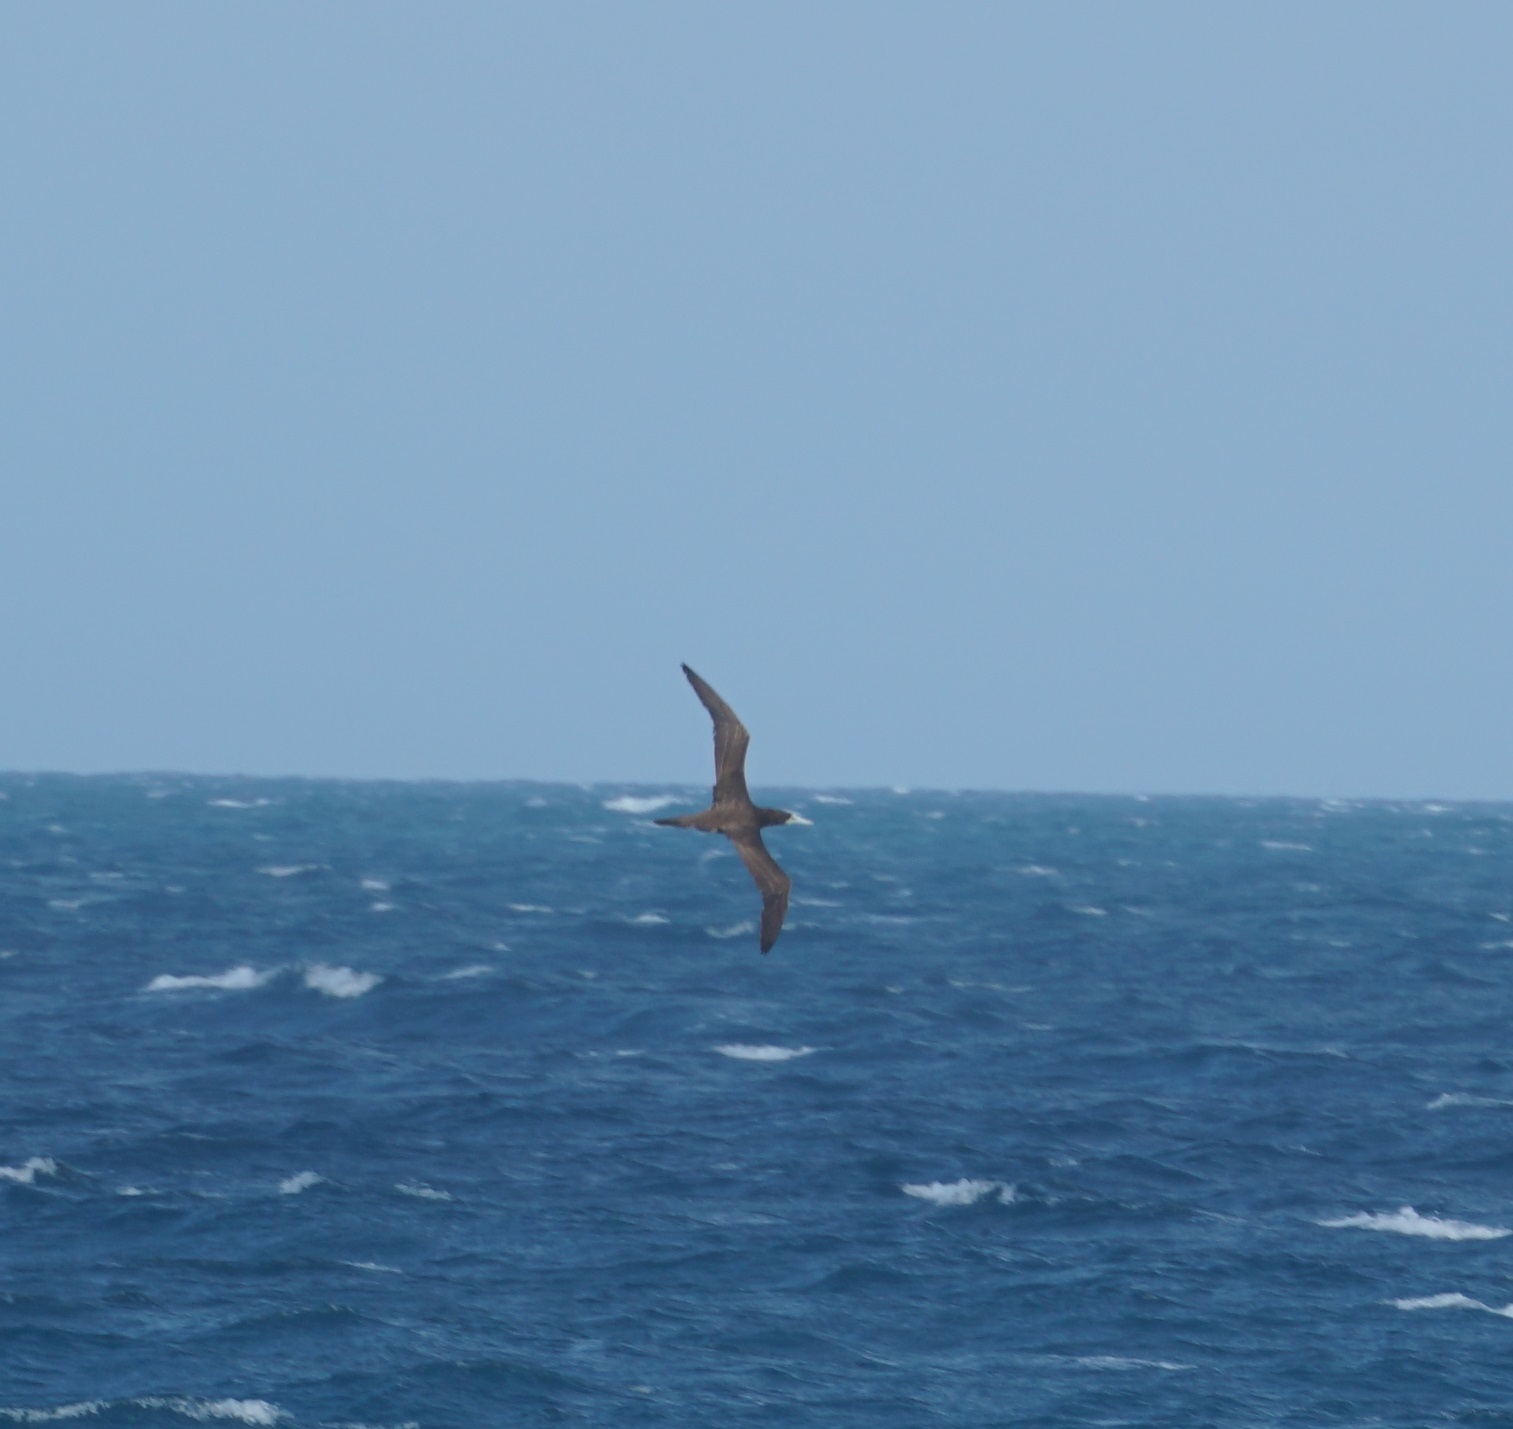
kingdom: Animalia
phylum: Chordata
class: Aves
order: Suliformes
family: Sulidae
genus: Sula
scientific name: Sula leucogaster
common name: Brown booby
